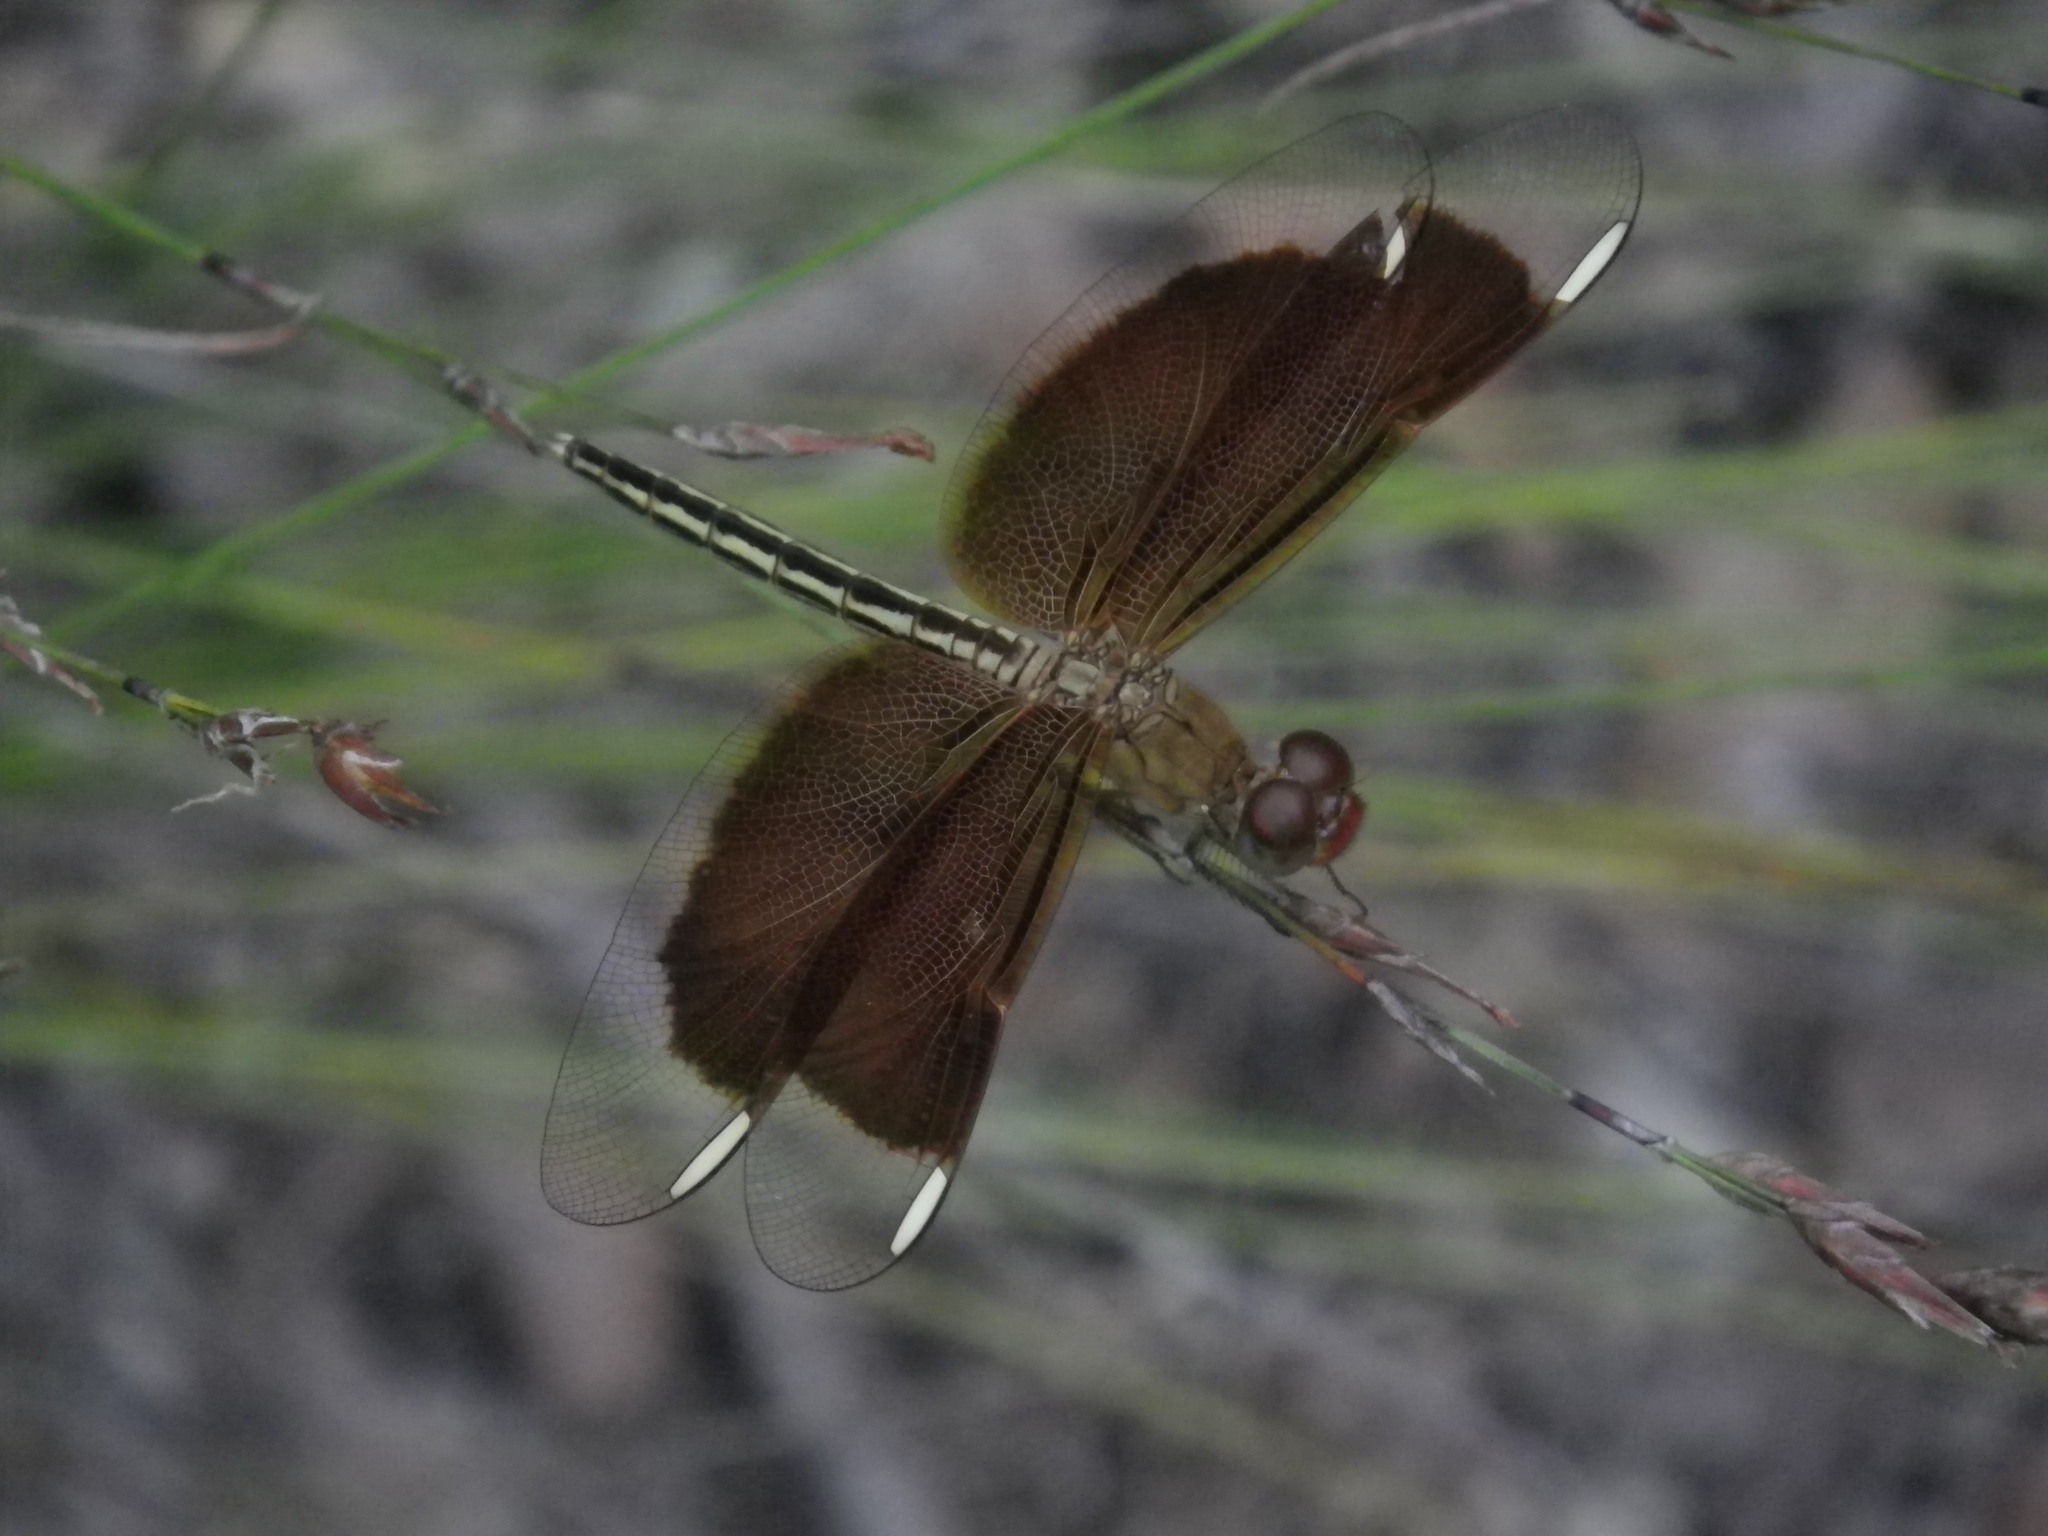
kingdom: Animalia
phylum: Arthropoda
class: Insecta
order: Odonata
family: Libellulidae
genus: Neurothemis
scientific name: Neurothemis stigmatizans
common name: Painted grasshawk
